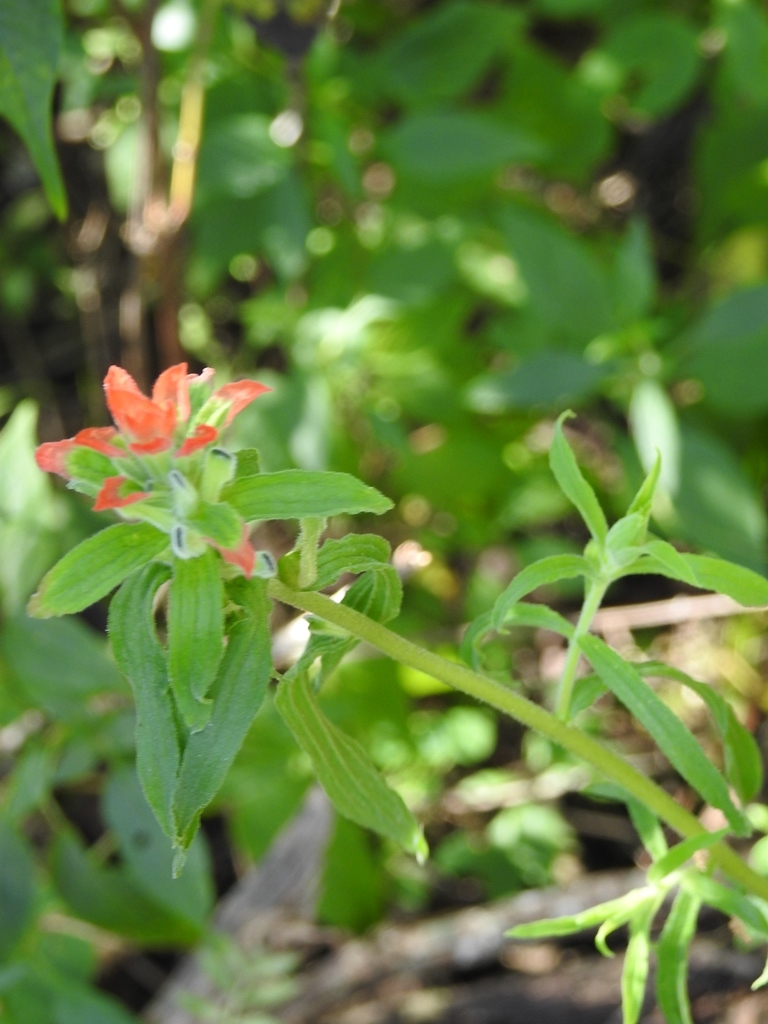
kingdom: Plantae
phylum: Tracheophyta
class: Magnoliopsida
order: Lamiales
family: Orobanchaceae
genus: Castilleja
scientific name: Castilleja arvensis
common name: Indian paintbrush
